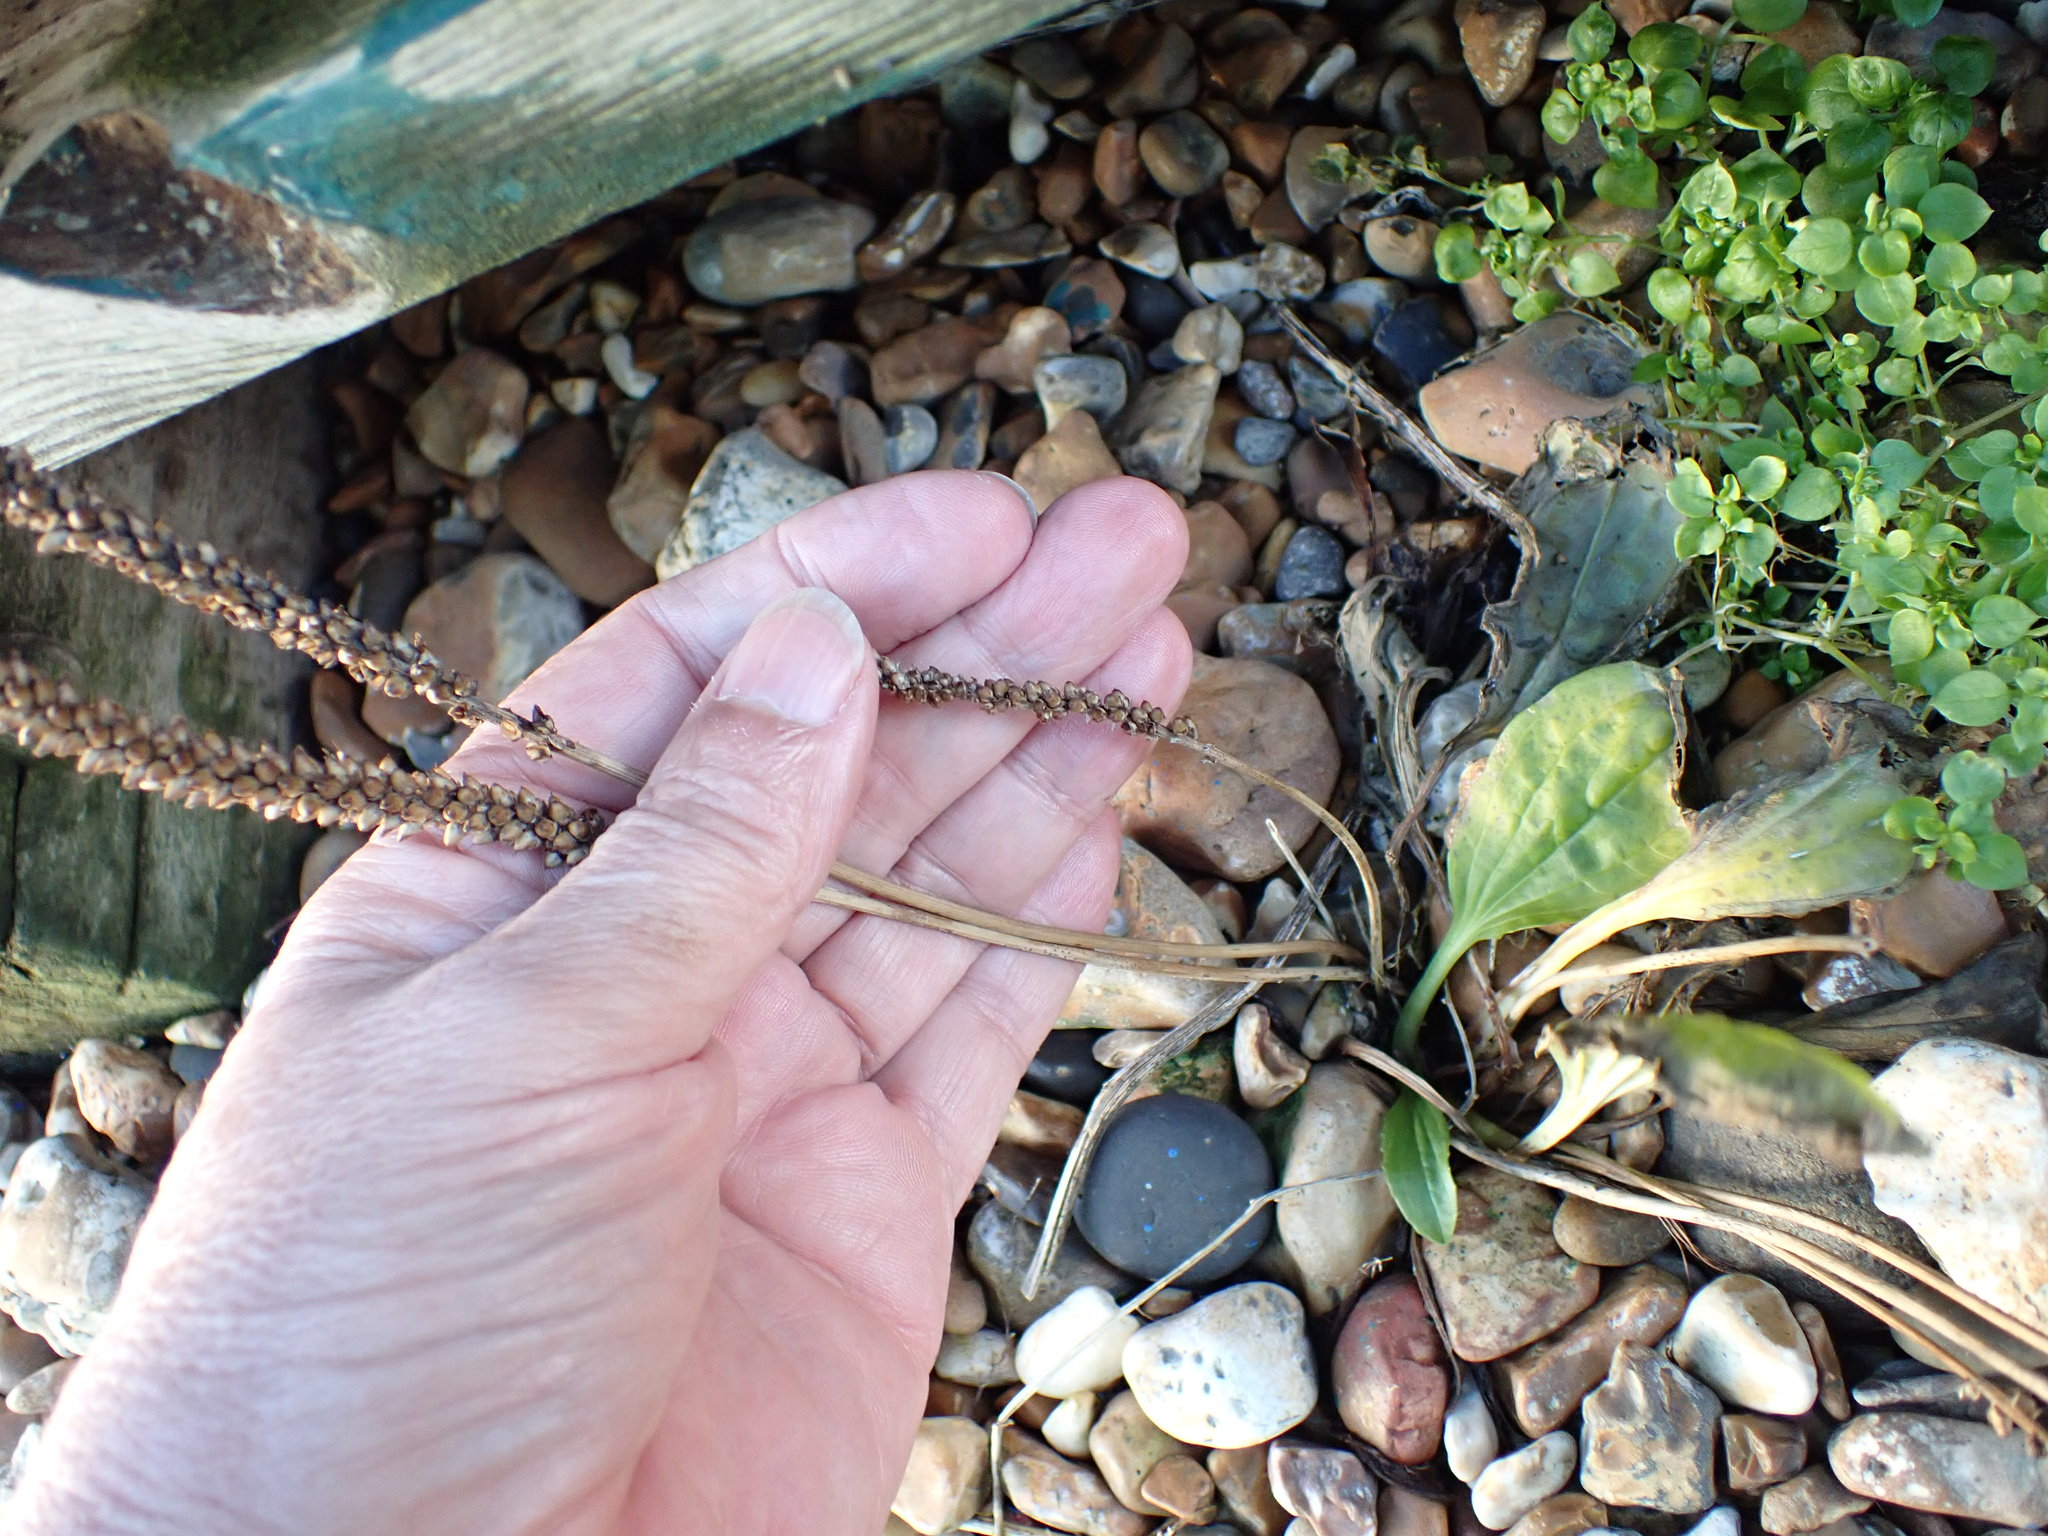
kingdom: Plantae
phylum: Tracheophyta
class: Magnoliopsida
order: Lamiales
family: Plantaginaceae
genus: Plantago
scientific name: Plantago major
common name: Common plantain
